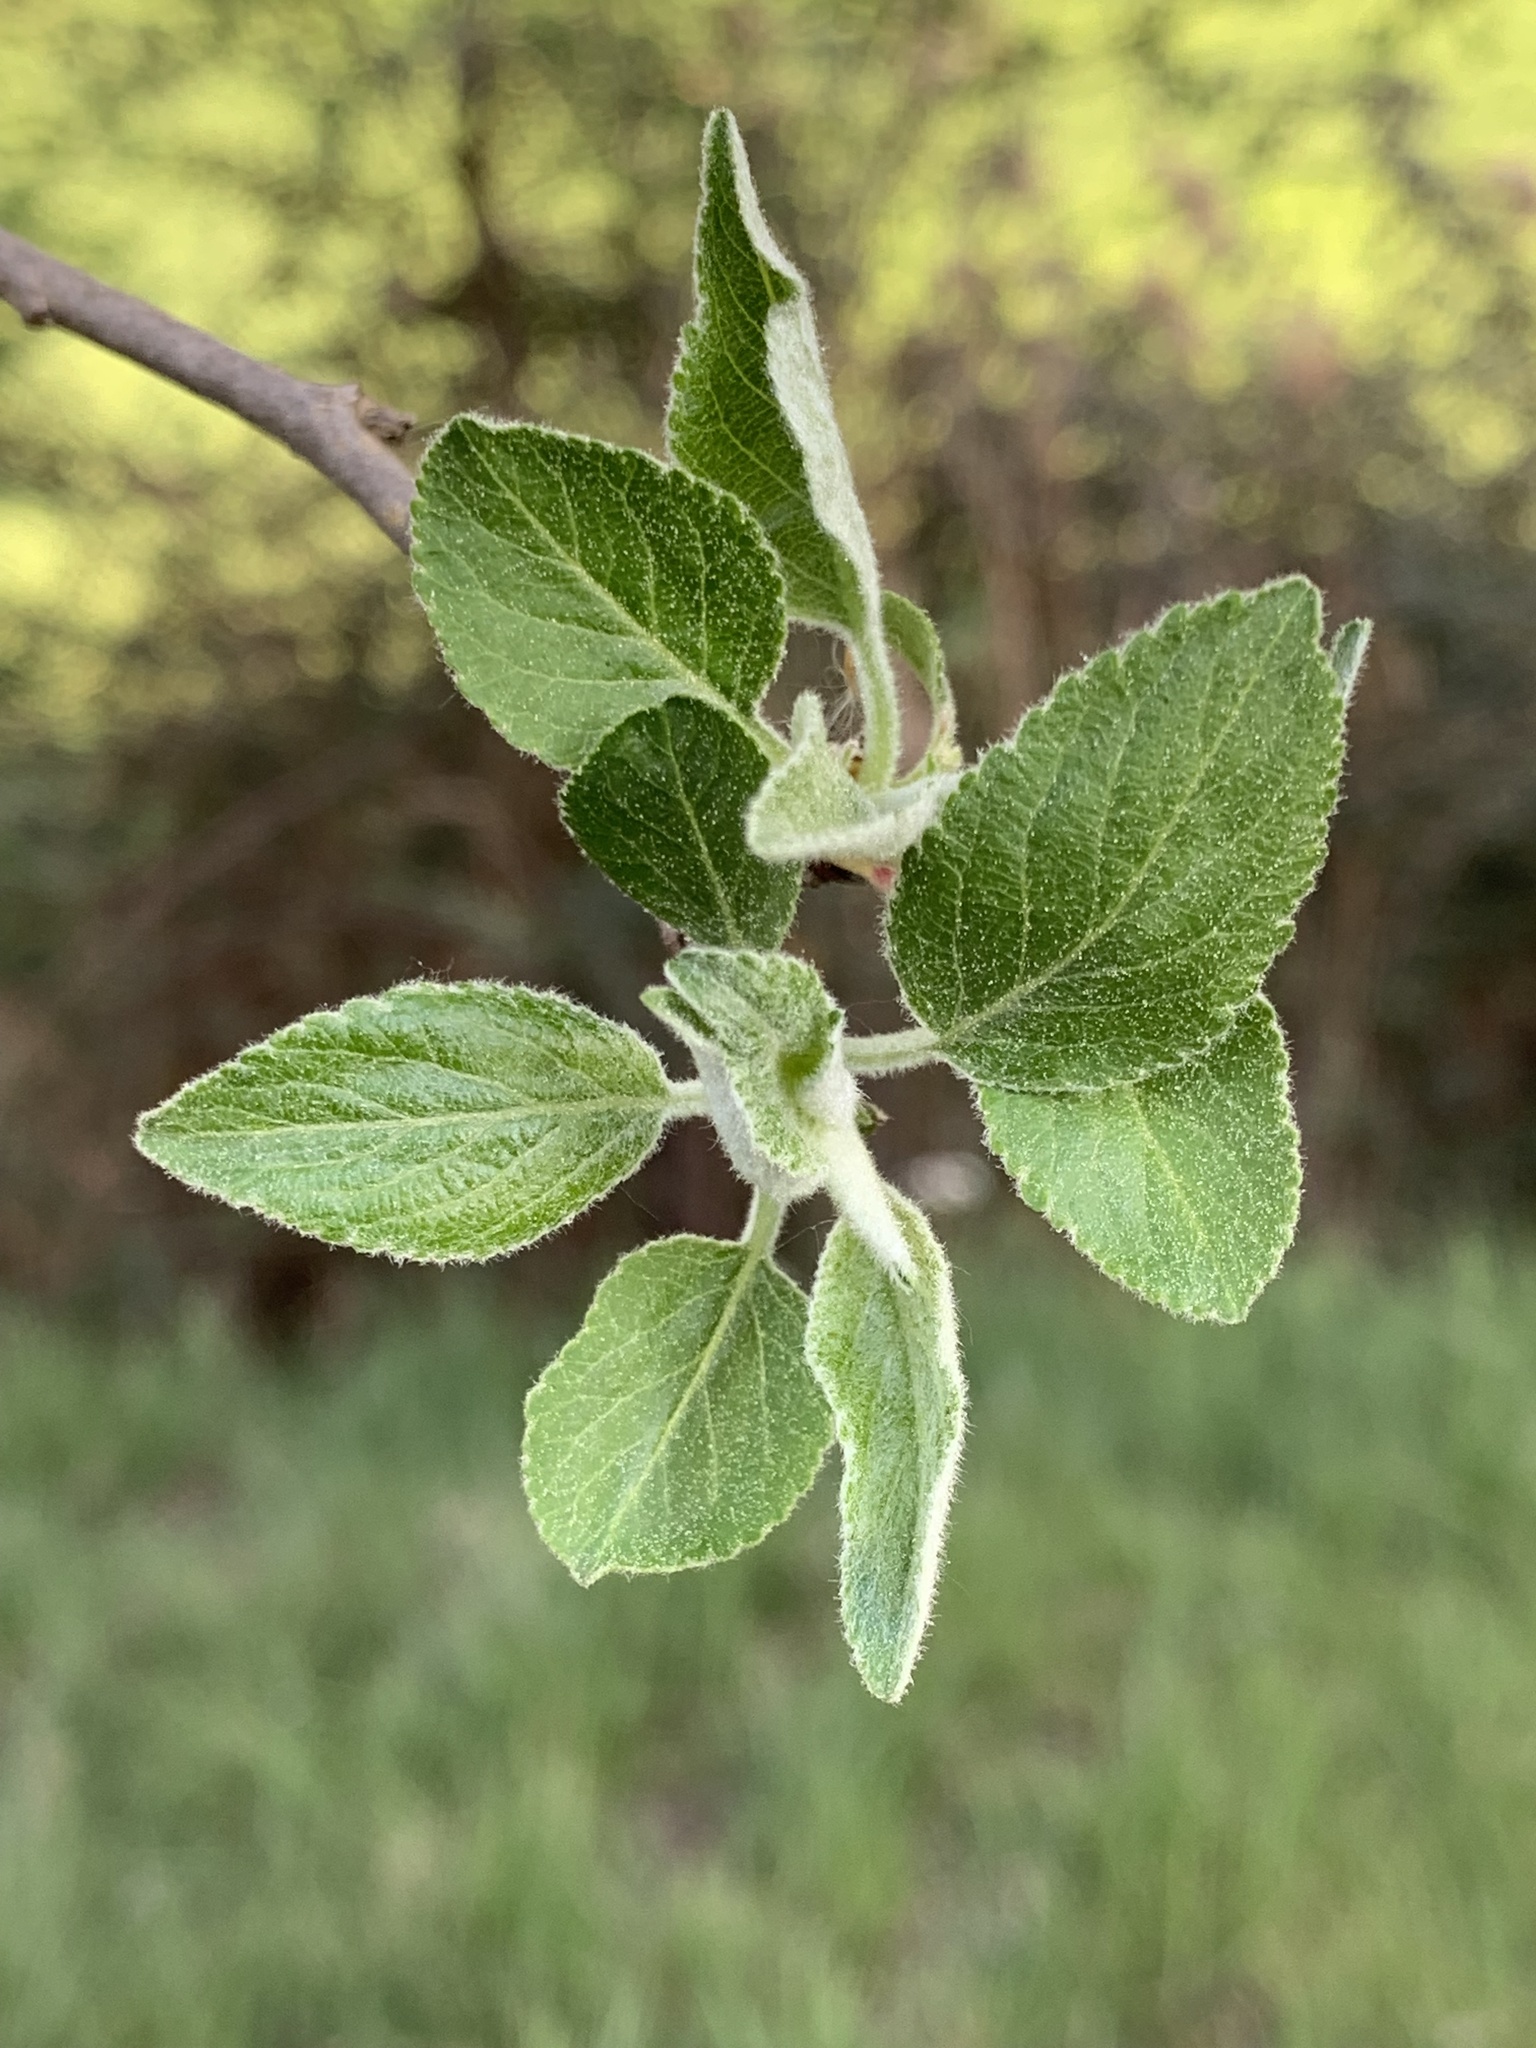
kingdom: Plantae
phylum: Tracheophyta
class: Magnoliopsida
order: Rosales
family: Rosaceae
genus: Malus
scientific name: Malus domestica
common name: Apple
